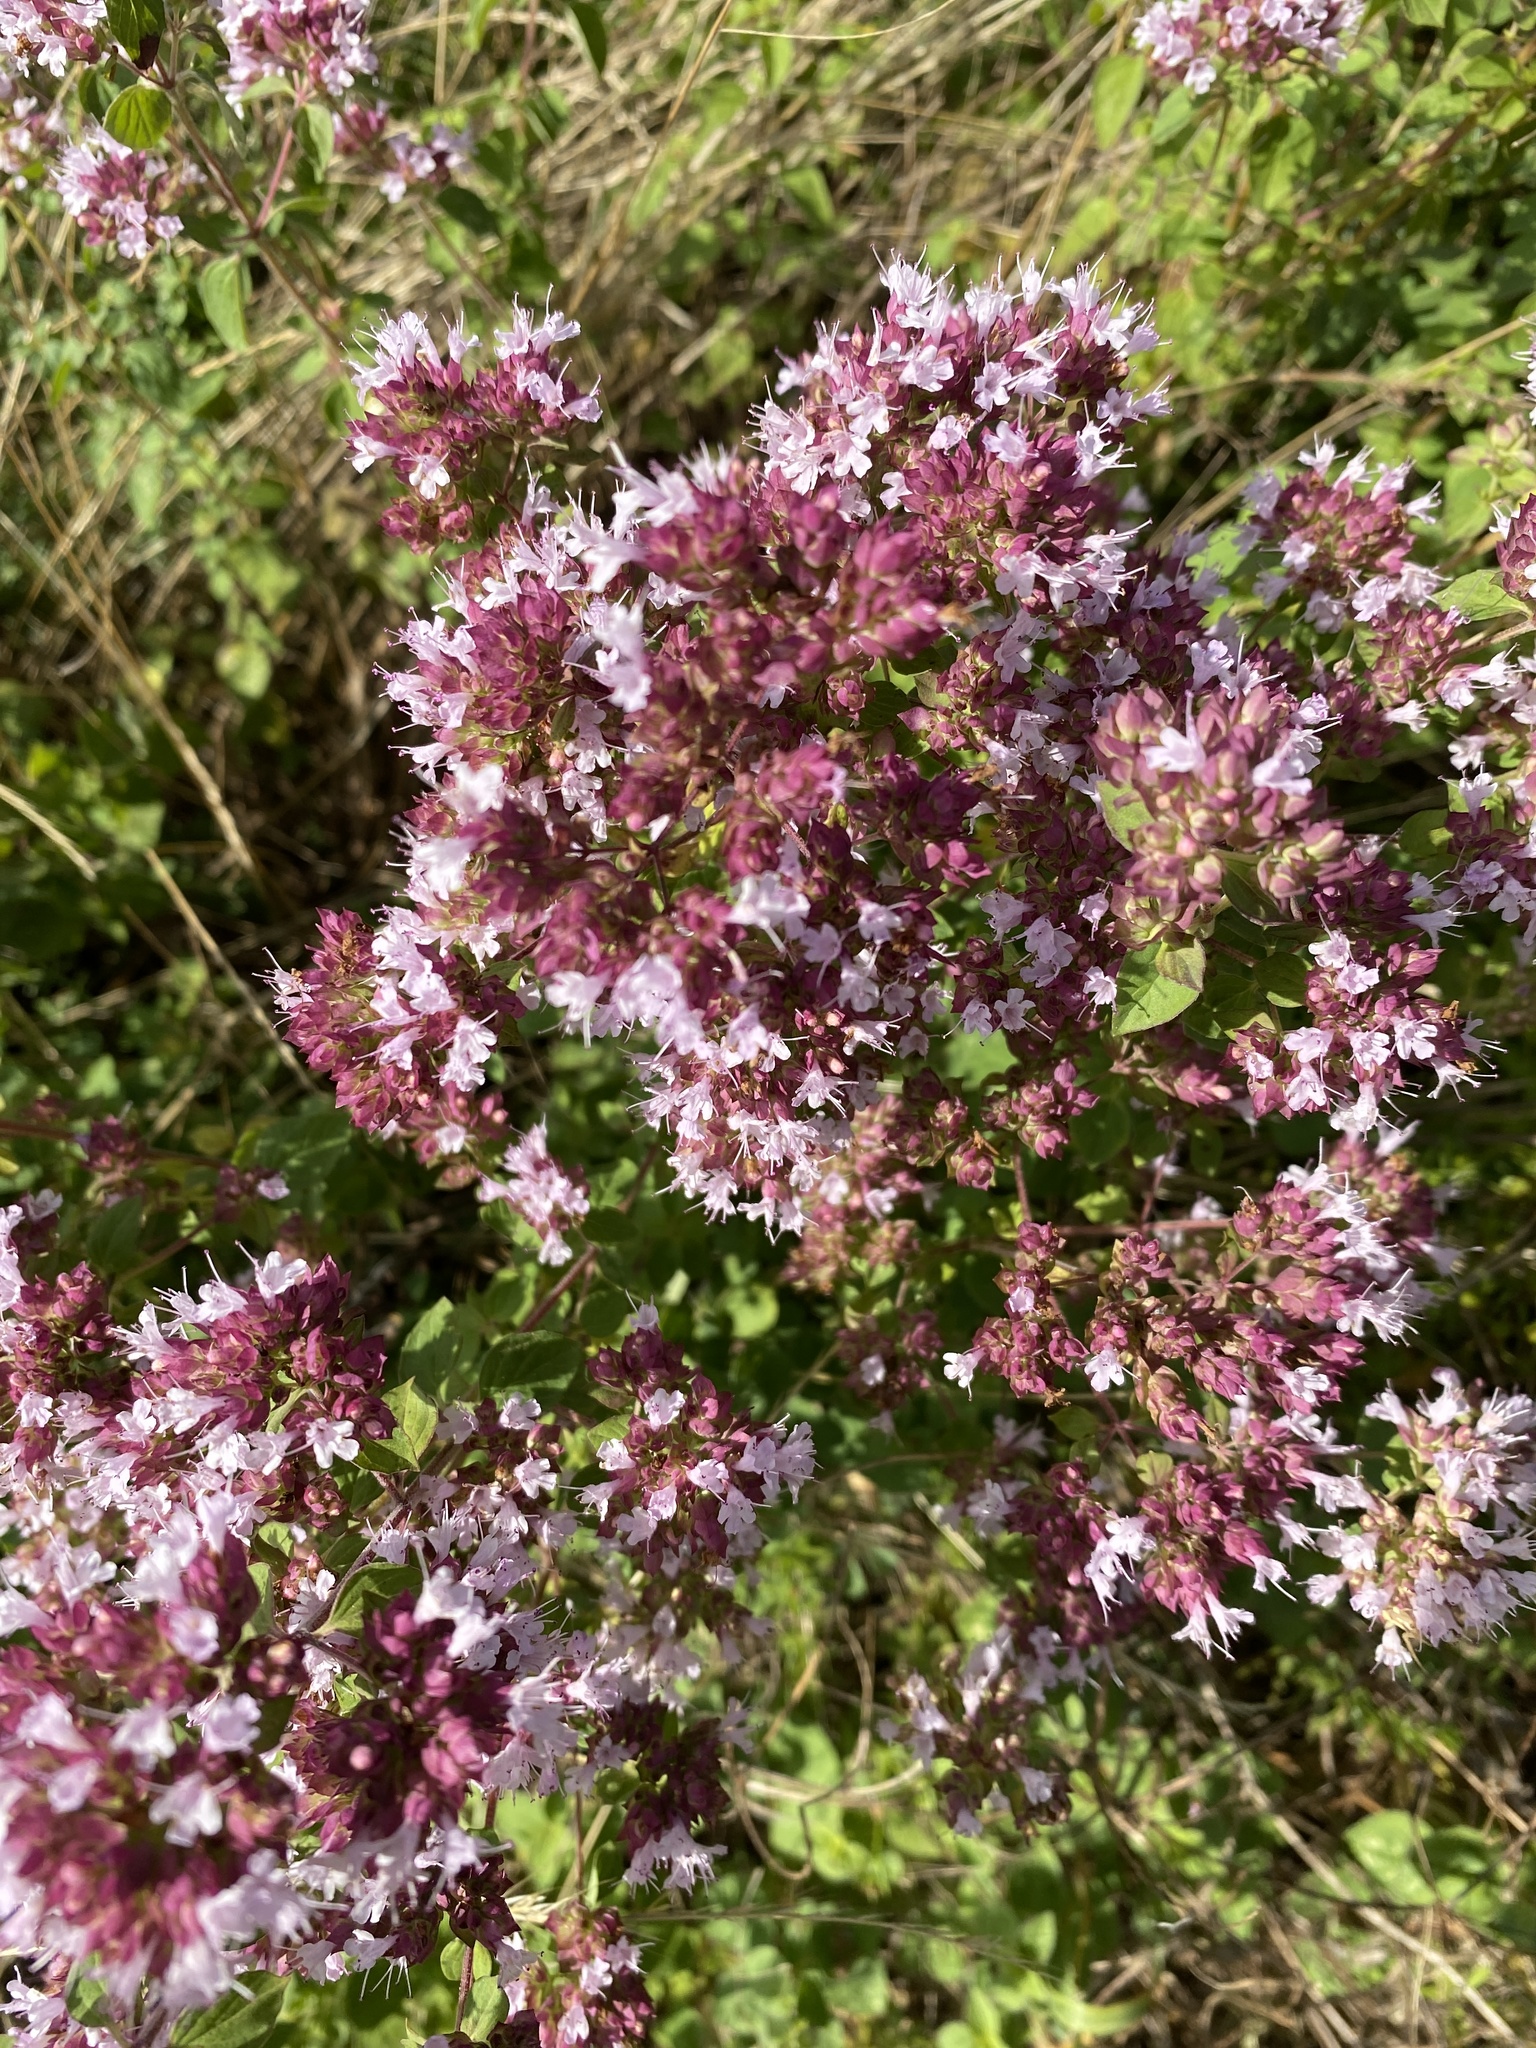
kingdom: Plantae
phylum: Tracheophyta
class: Magnoliopsida
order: Lamiales
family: Lamiaceae
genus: Origanum
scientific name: Origanum vulgare
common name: Wild marjoram
